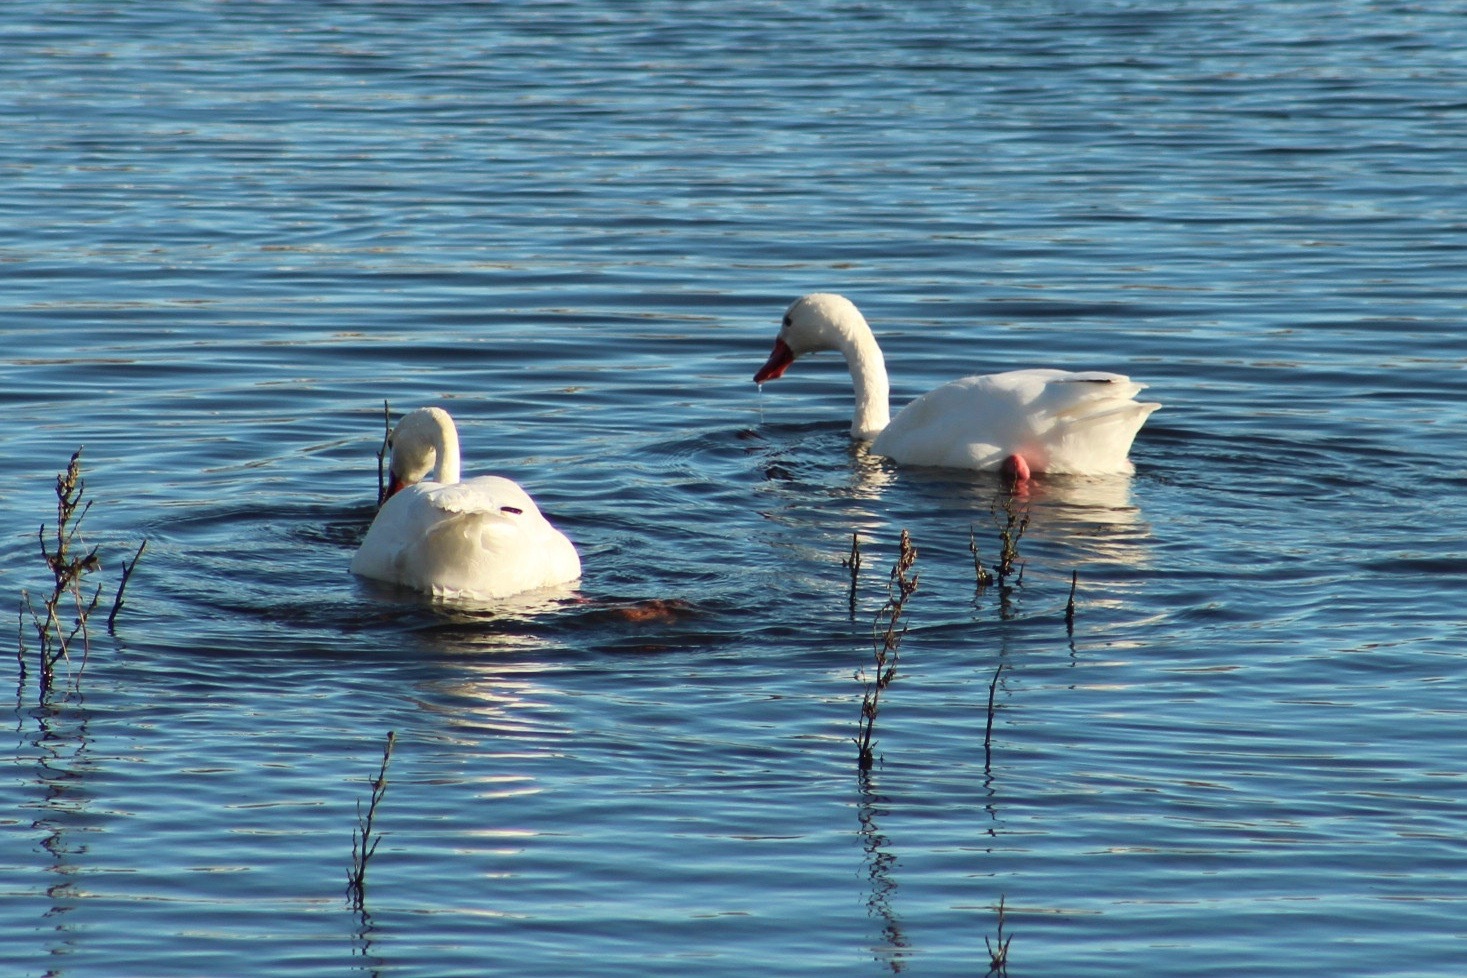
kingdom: Animalia
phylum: Chordata
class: Aves
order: Anseriformes
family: Anatidae
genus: Coscoroba
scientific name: Coscoroba coscoroba
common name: Coscoroba swan
